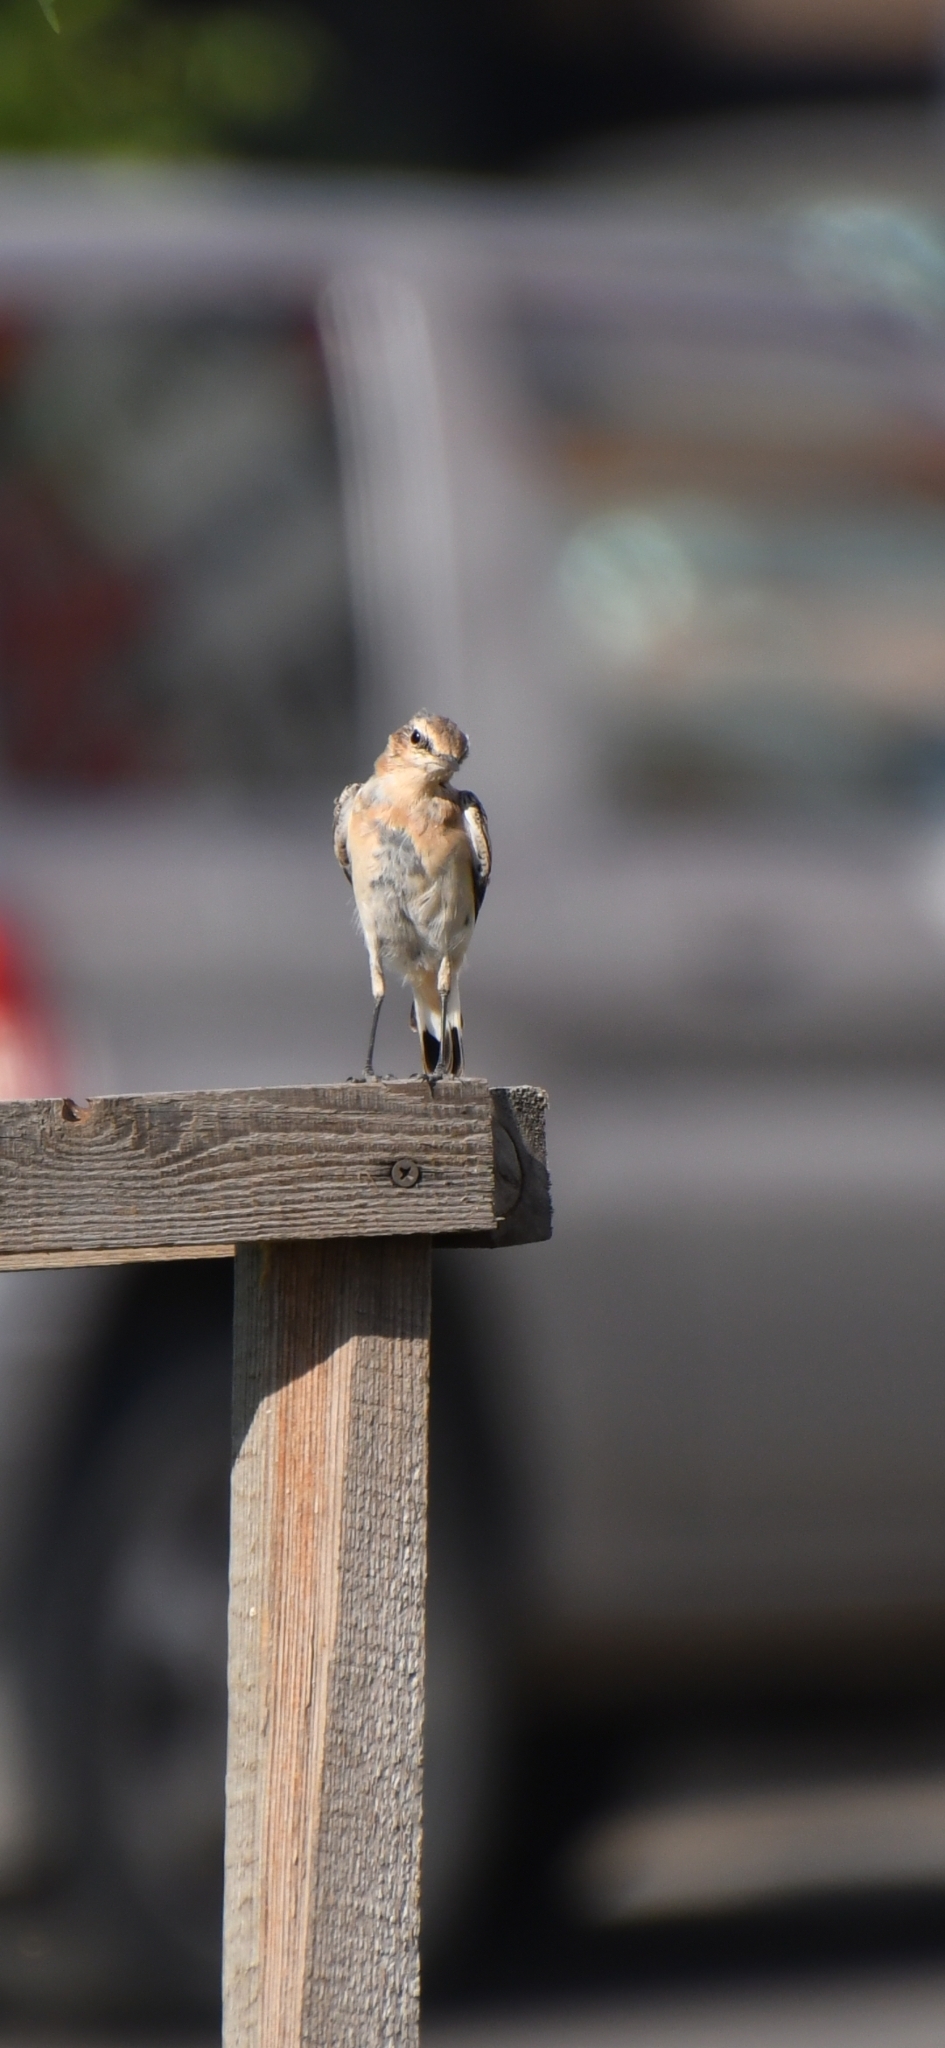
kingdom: Animalia
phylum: Chordata
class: Aves
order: Passeriformes
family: Muscicapidae
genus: Oenanthe
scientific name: Oenanthe oenanthe
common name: Northern wheatear
